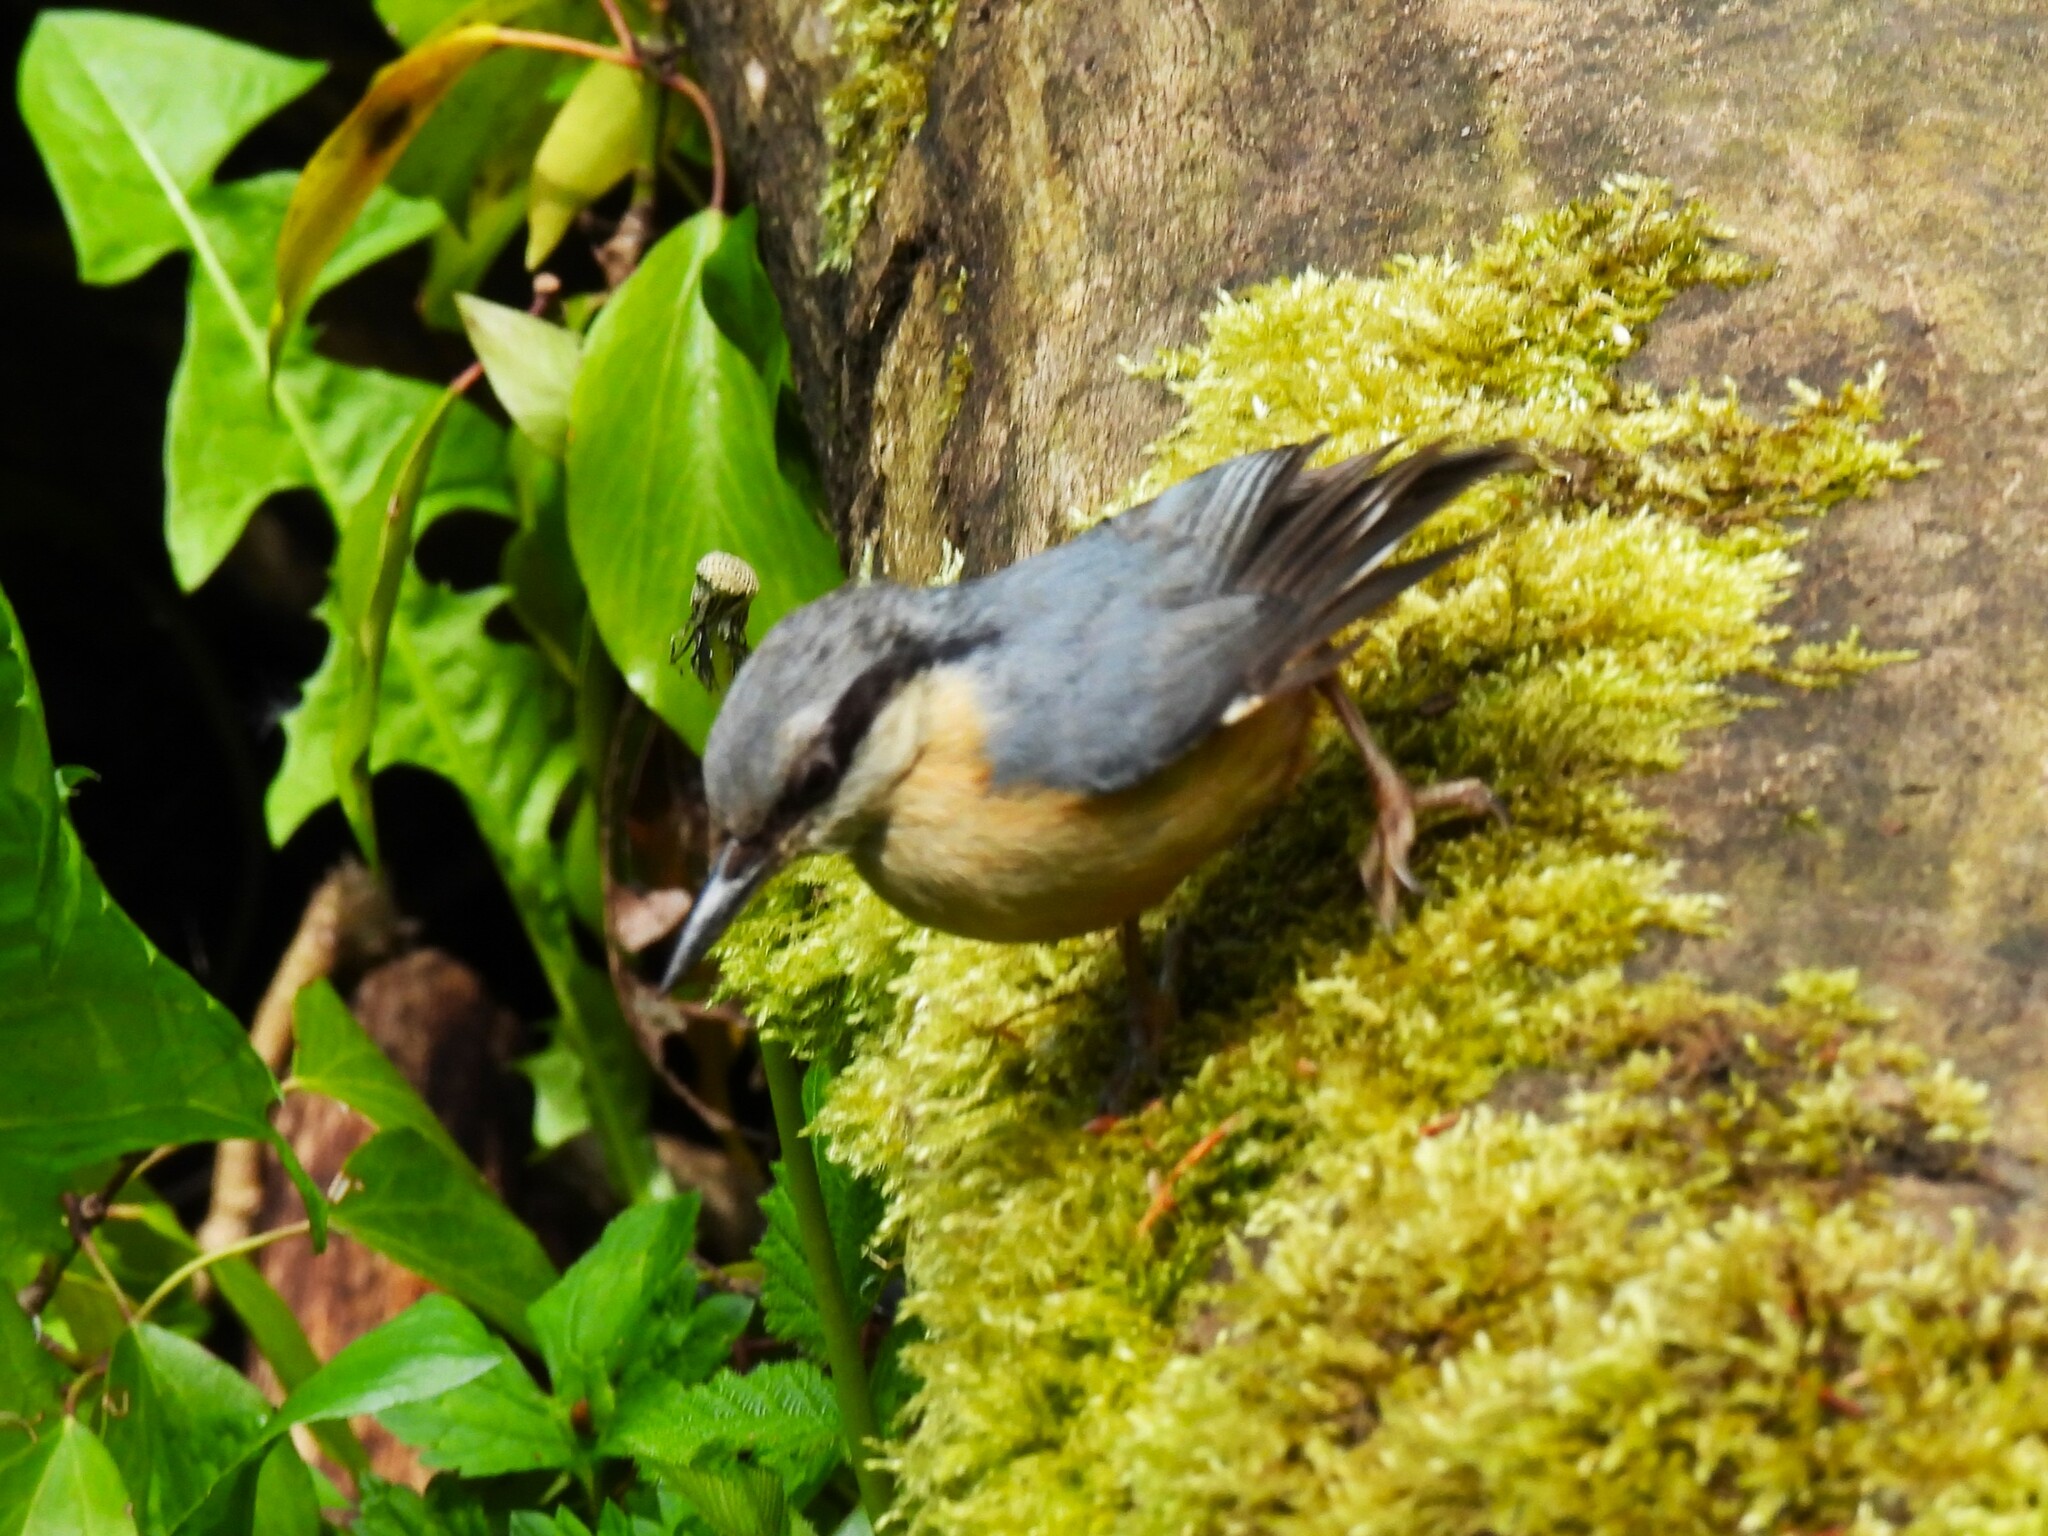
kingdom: Animalia
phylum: Chordata
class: Aves
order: Passeriformes
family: Sittidae
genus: Sitta
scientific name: Sitta europaea
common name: Eurasian nuthatch
